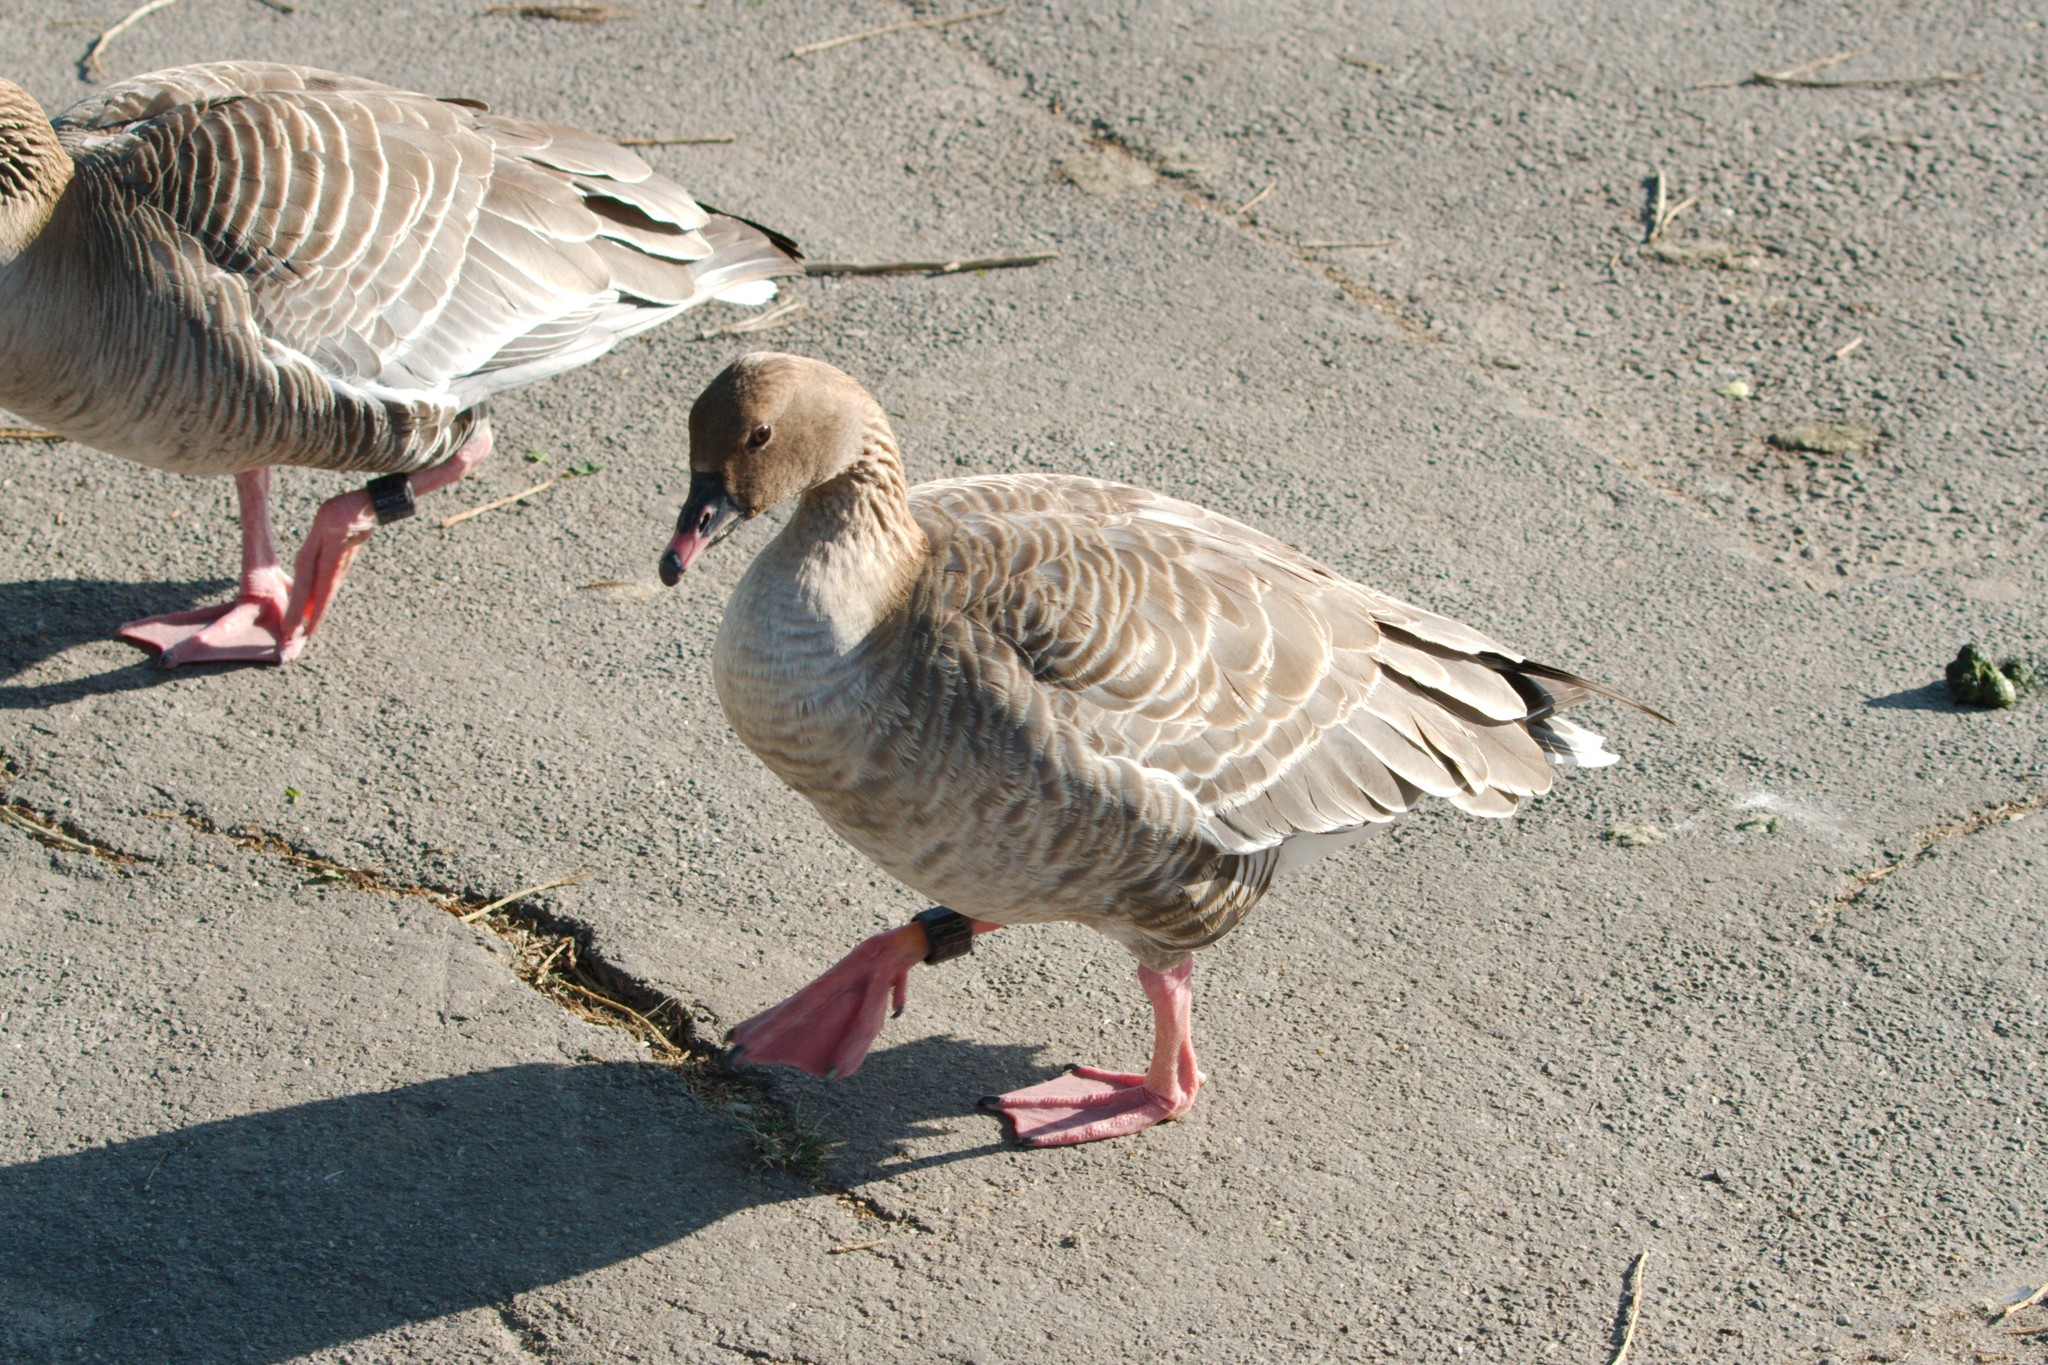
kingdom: Animalia
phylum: Chordata
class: Aves
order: Anseriformes
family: Anatidae
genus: Anser
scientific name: Anser brachyrhynchus
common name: Pink-footed goose
